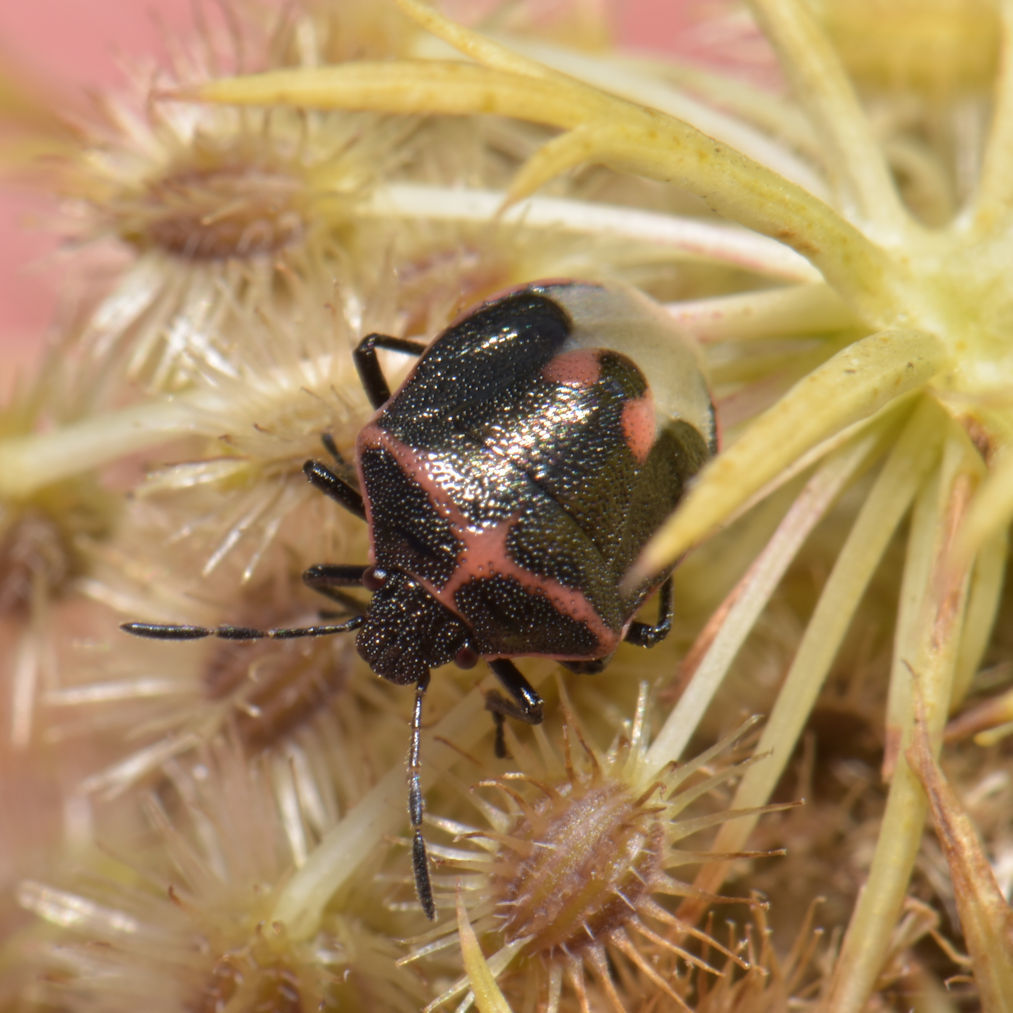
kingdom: Animalia
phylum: Arthropoda
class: Insecta
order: Hemiptera
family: Pentatomidae
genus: Cosmopepla
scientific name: Cosmopepla lintneriana
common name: Twice-stabbed stink bug
